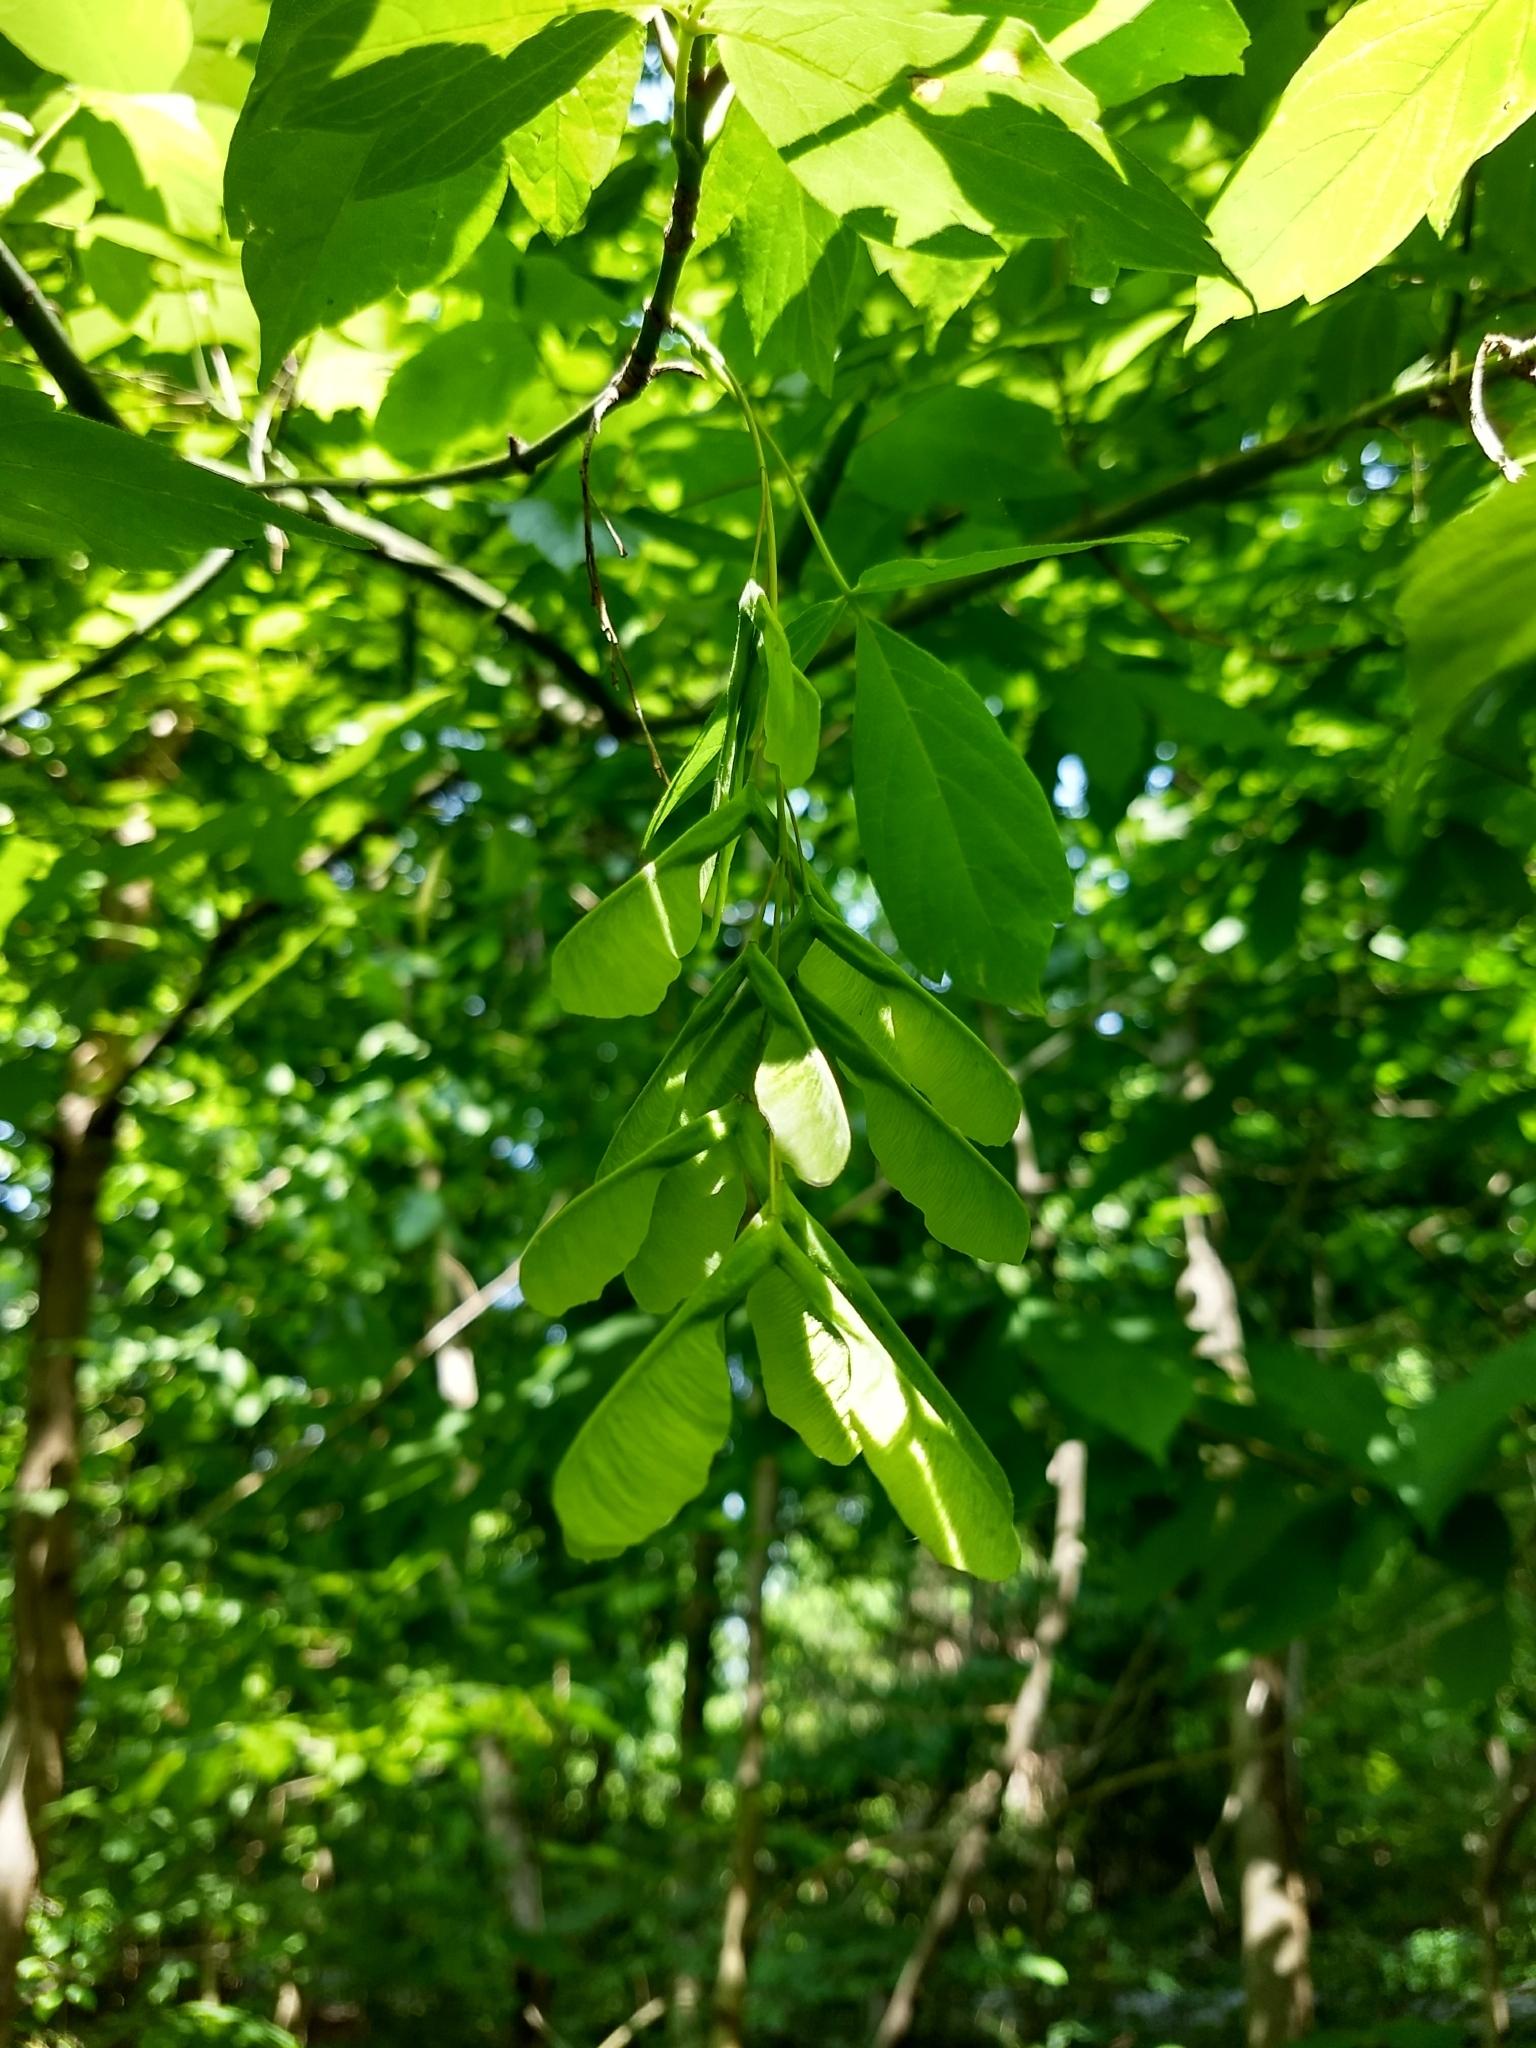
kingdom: Plantae
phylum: Tracheophyta
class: Magnoliopsida
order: Sapindales
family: Sapindaceae
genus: Acer
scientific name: Acer negundo
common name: Ashleaf maple
